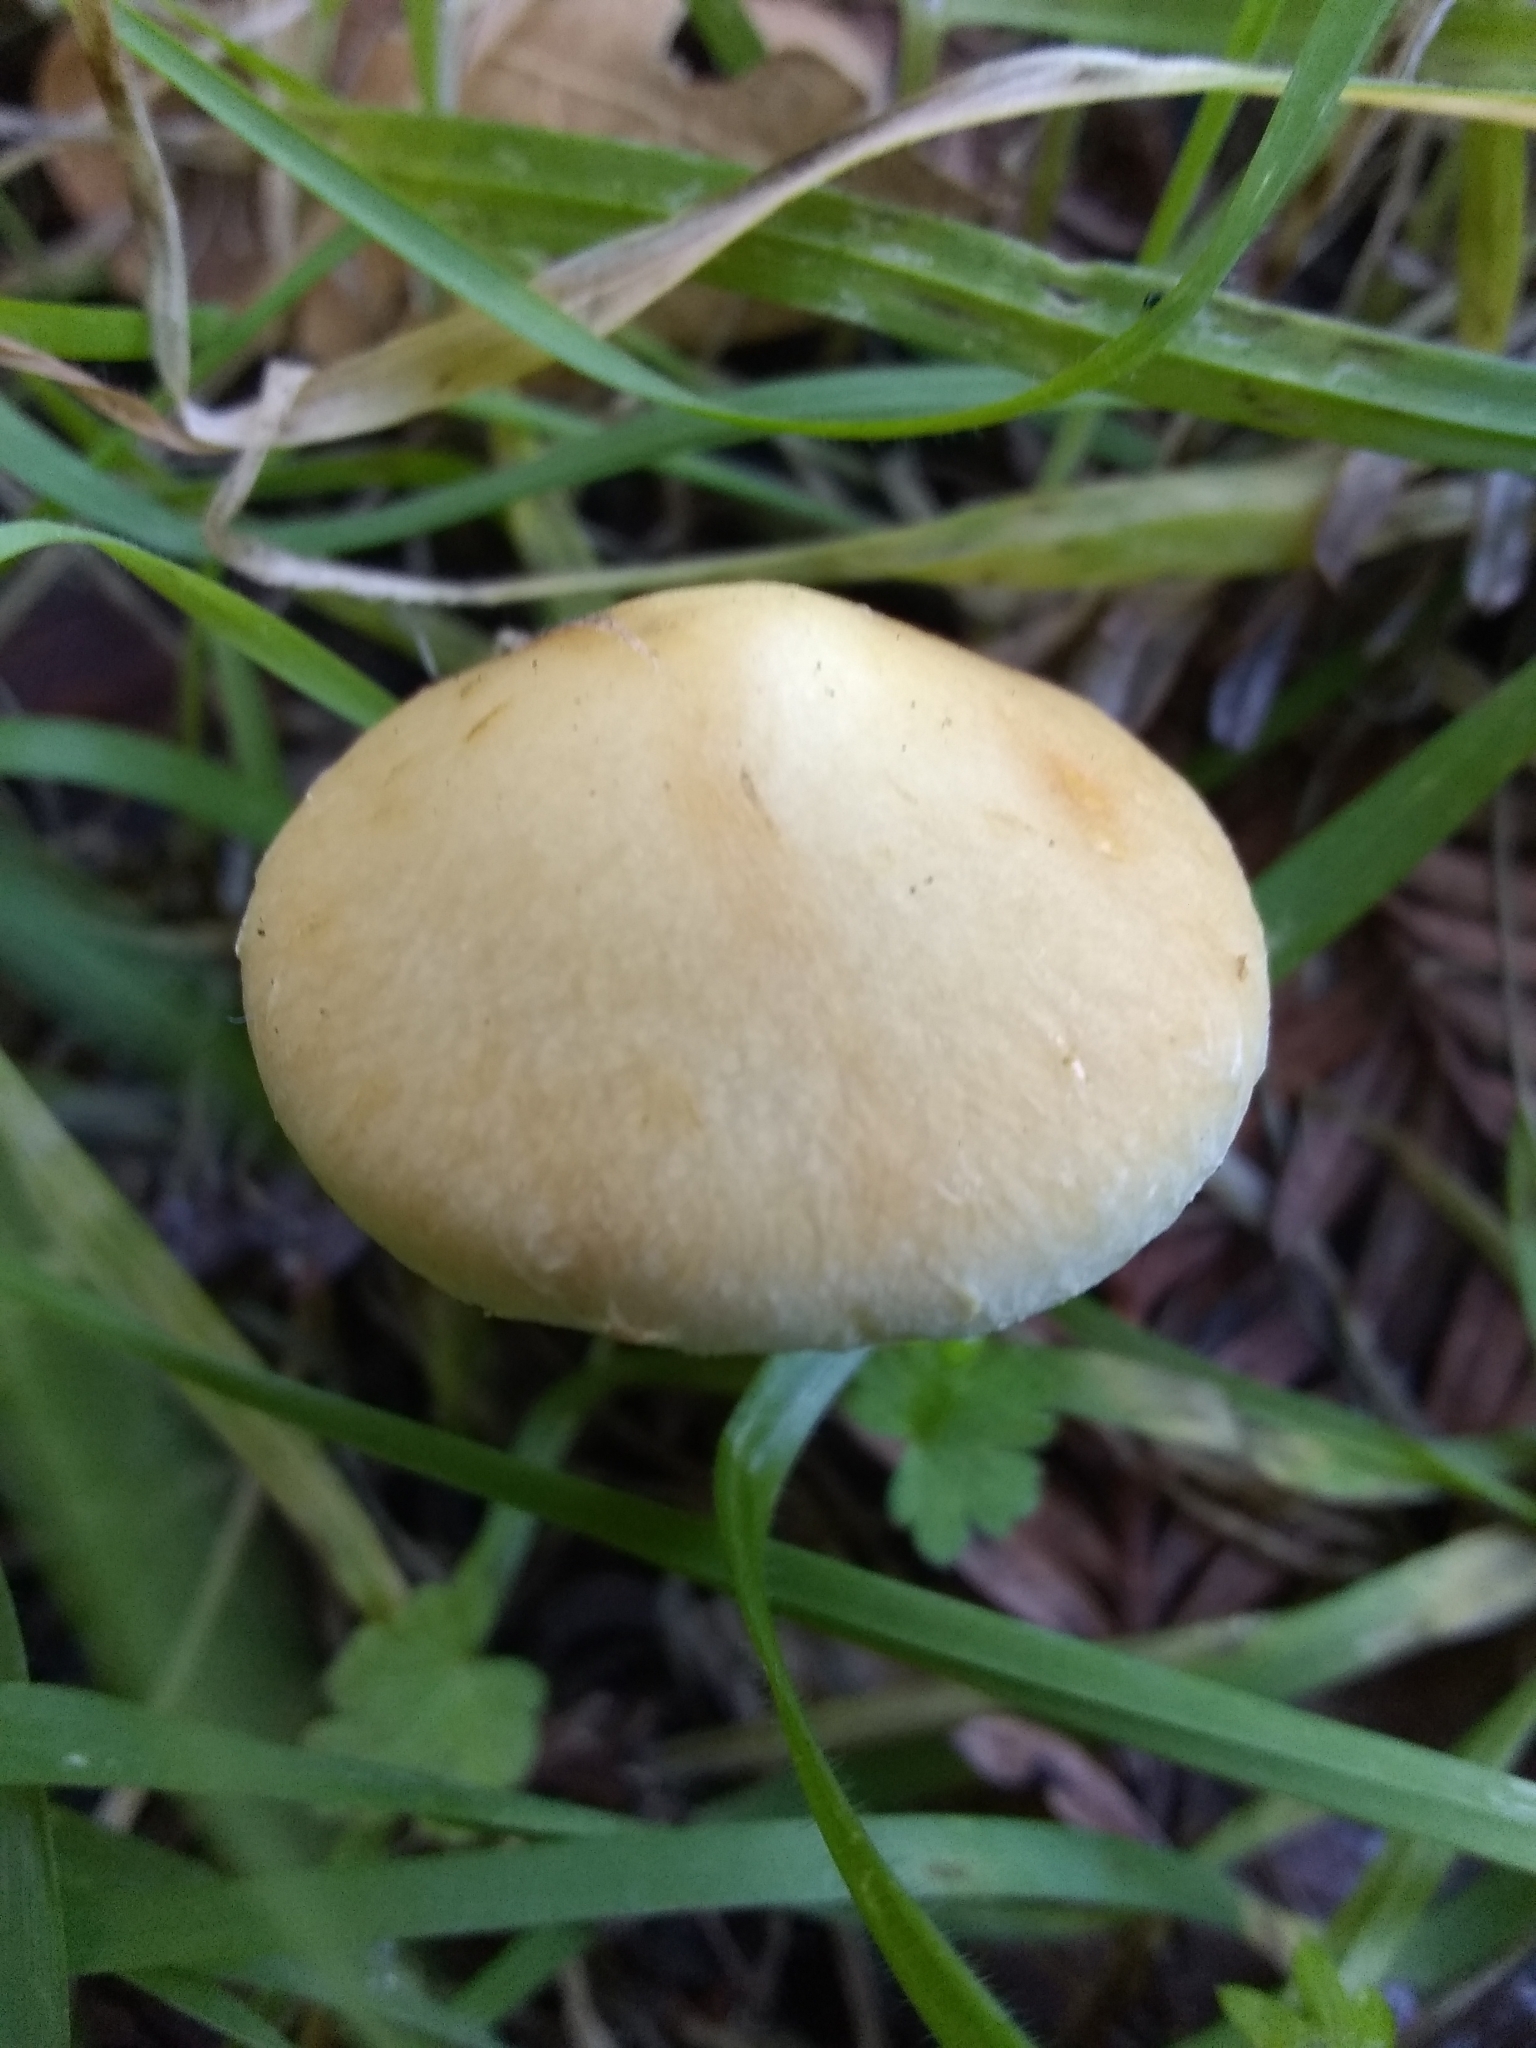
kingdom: Fungi
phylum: Basidiomycota
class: Agaricomycetes
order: Agaricales
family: Strophariaceae
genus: Leratiomyces
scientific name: Leratiomyces percevalii
